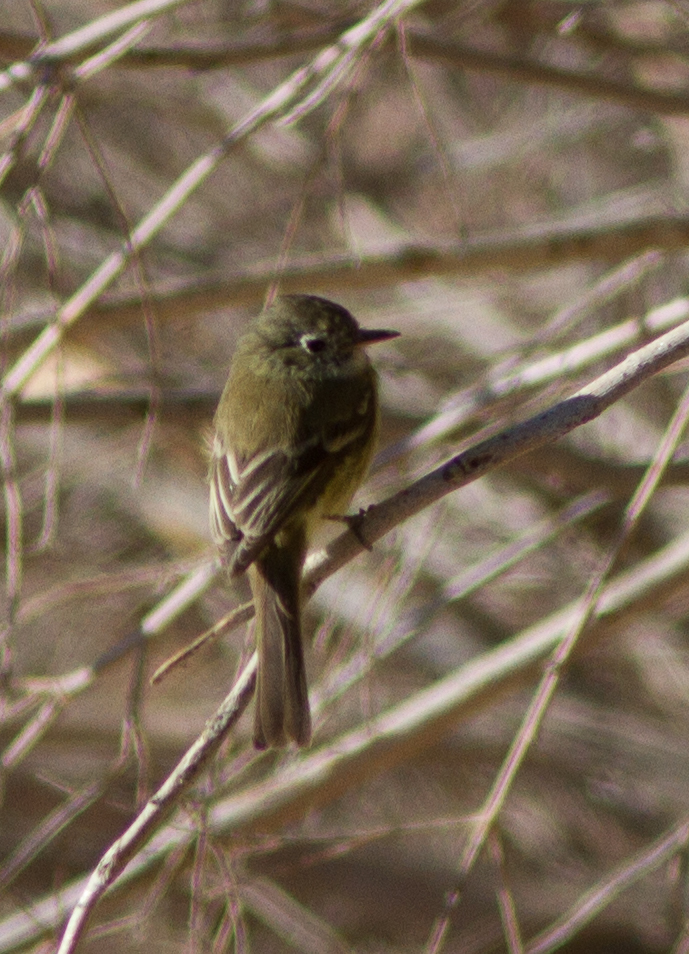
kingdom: Animalia
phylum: Chordata
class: Aves
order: Passeriformes
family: Tyrannidae
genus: Empidonax
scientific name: Empidonax oberholseri
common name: Dusky flycatcher
